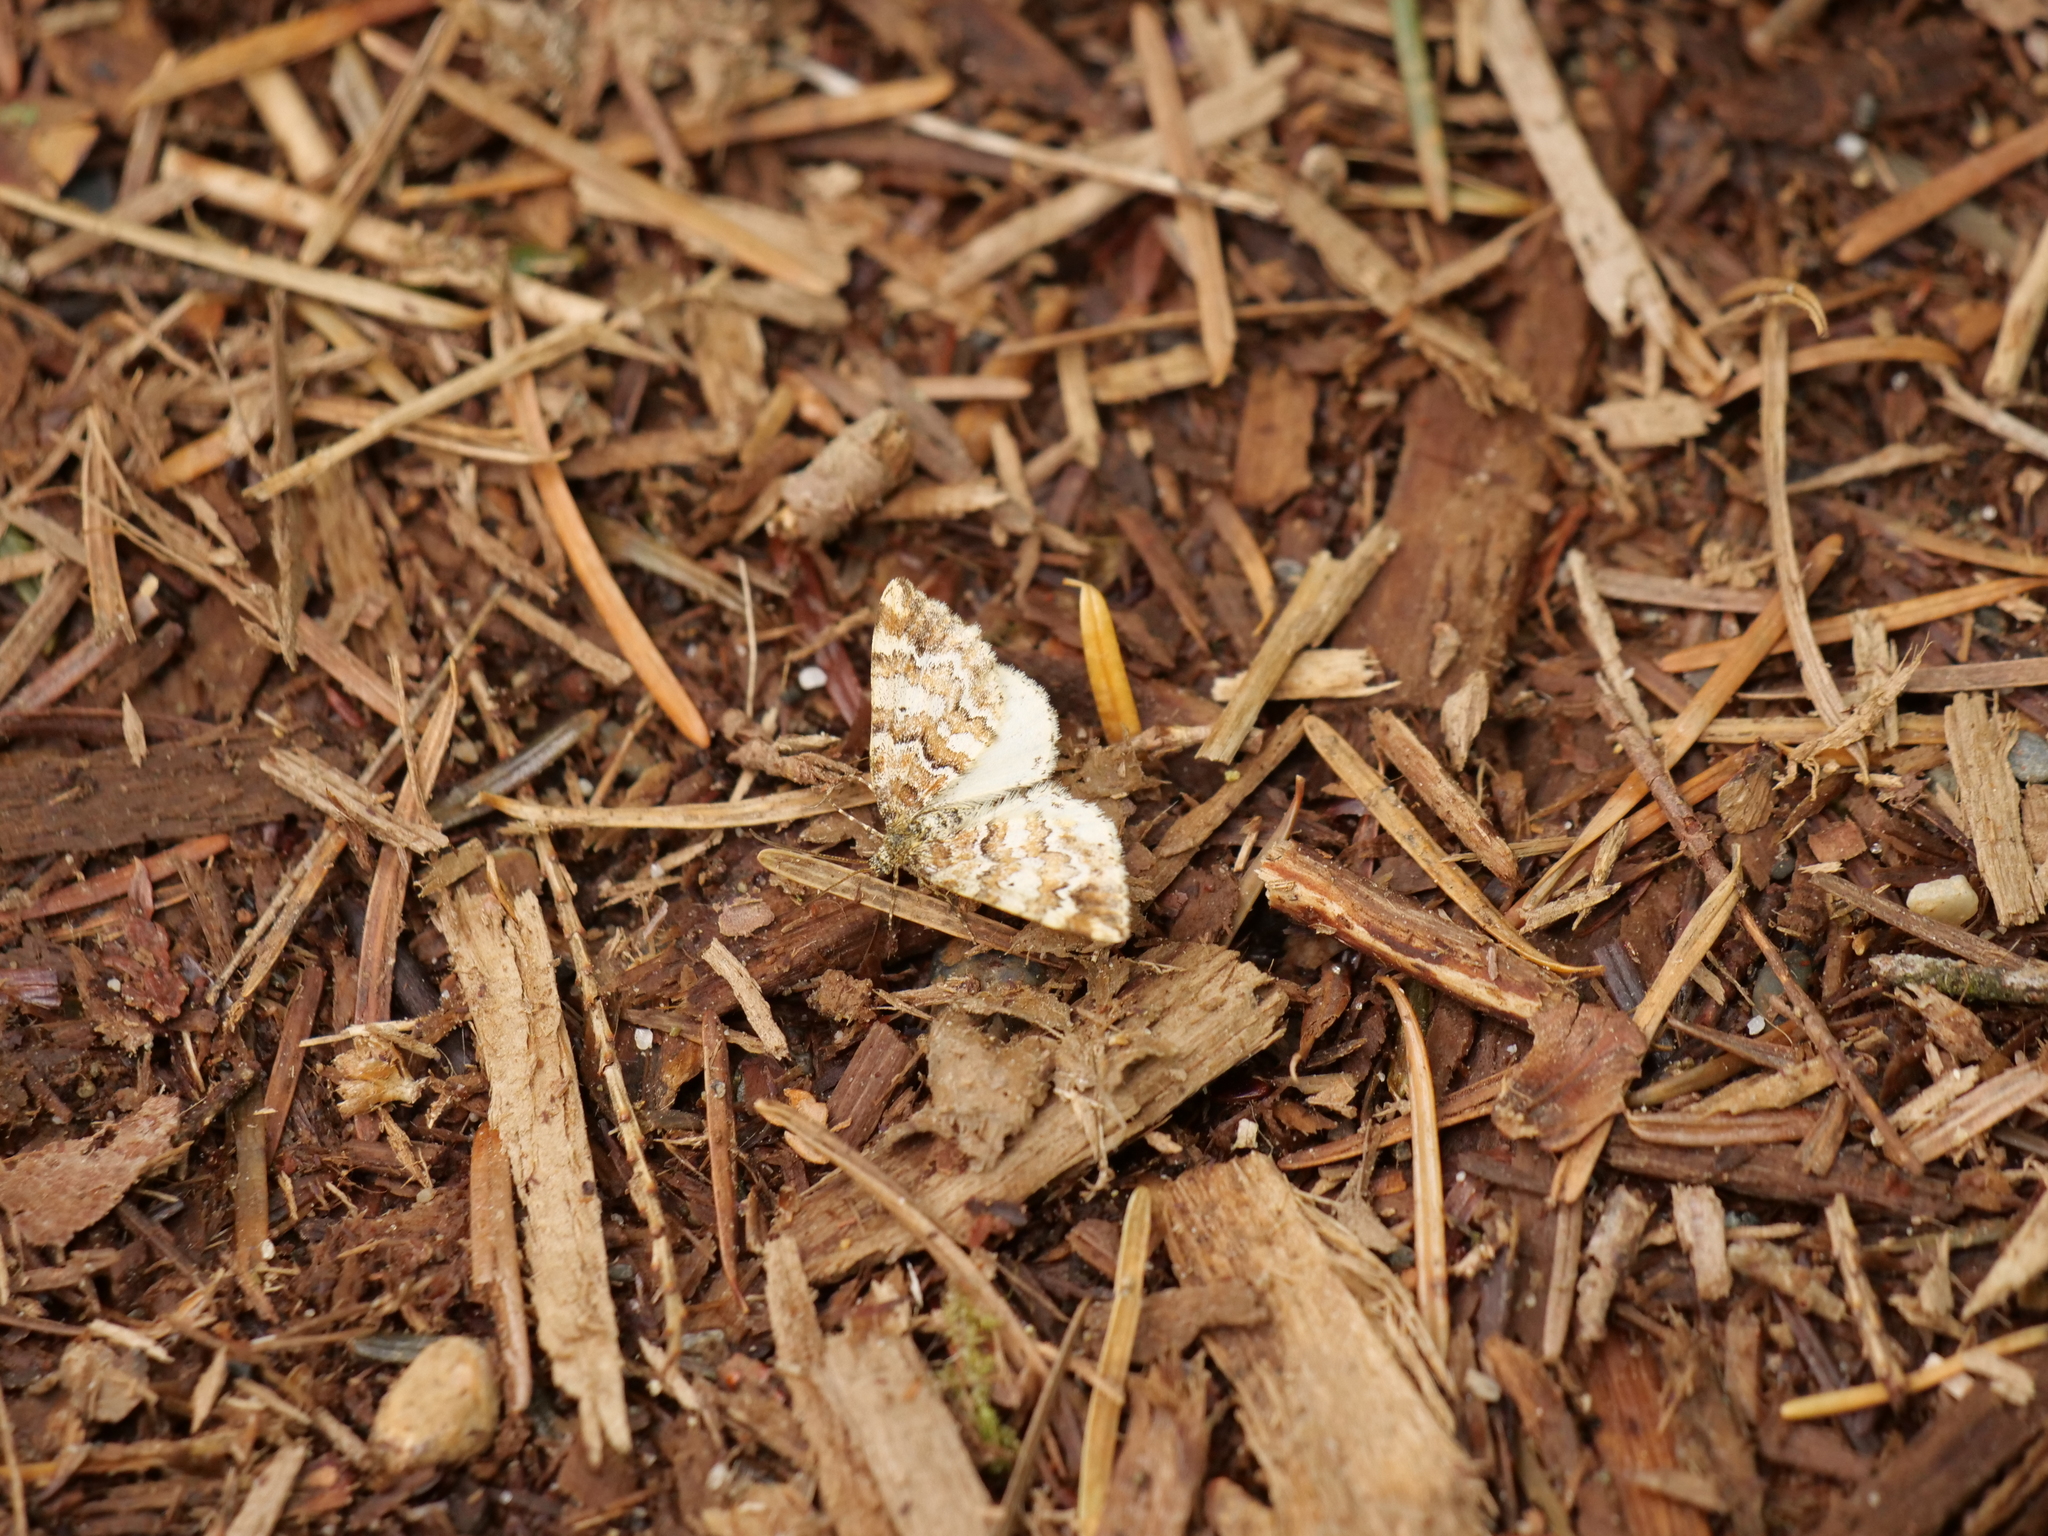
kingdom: Animalia
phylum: Arthropoda
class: Insecta
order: Lepidoptera
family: Geometridae
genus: Enchoria
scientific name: Enchoria lacteata
